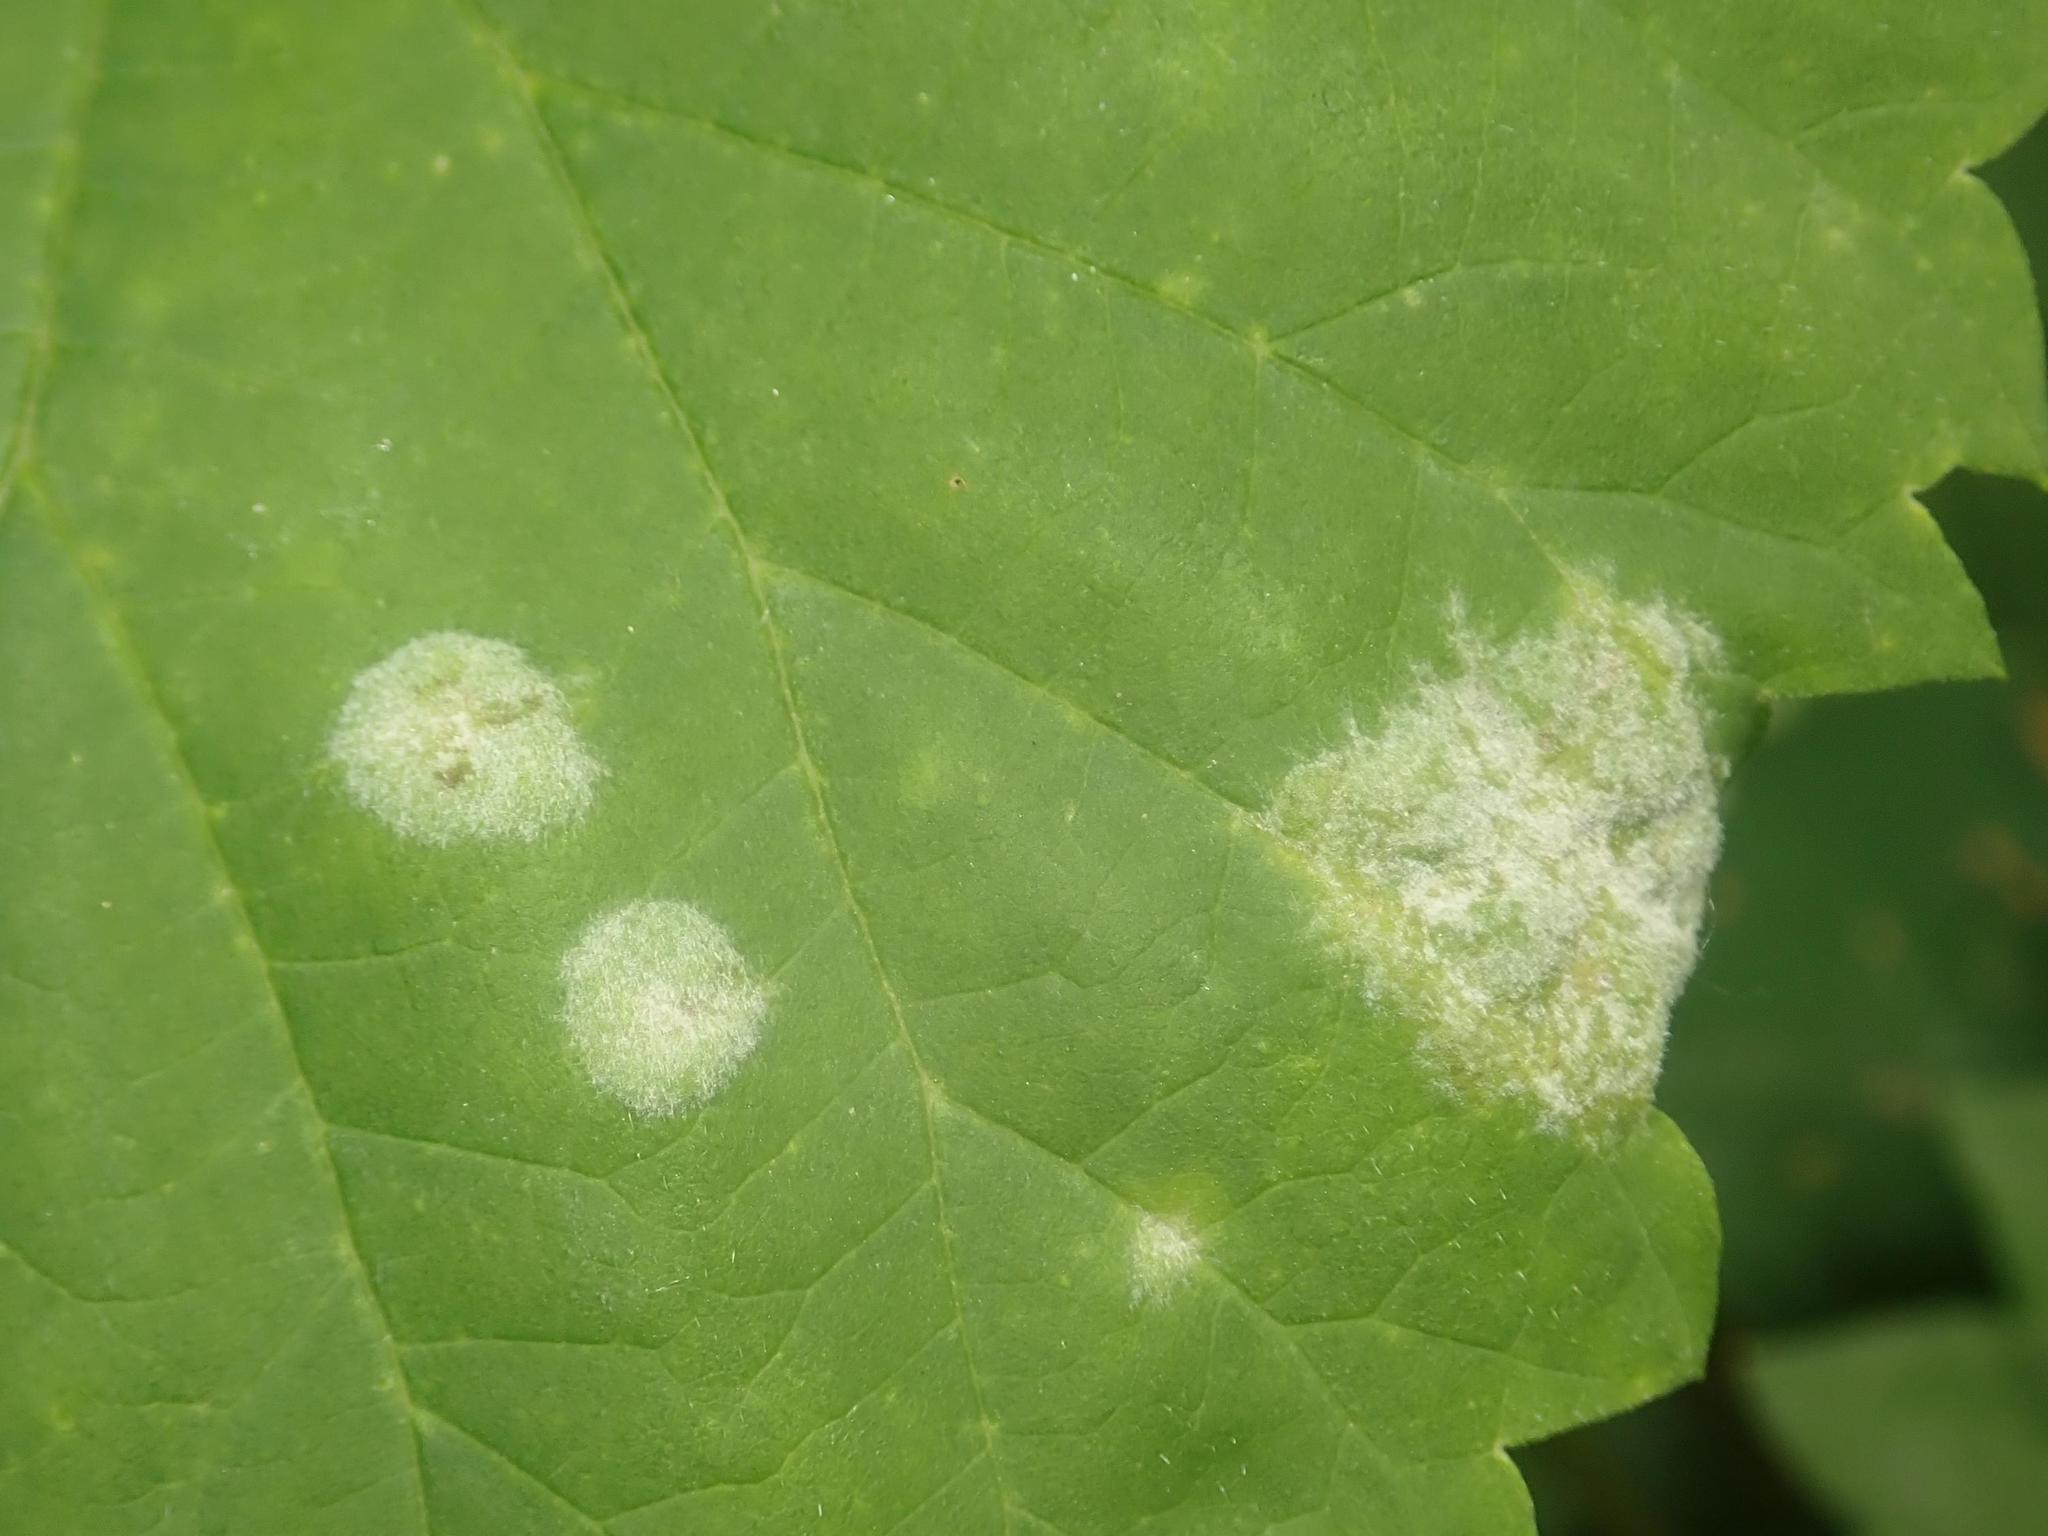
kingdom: Fungi
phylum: Ascomycota
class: Leotiomycetes
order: Helotiales
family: Erysiphaceae
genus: Podosphaera
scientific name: Podosphaera macularis
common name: Powdery mildew
